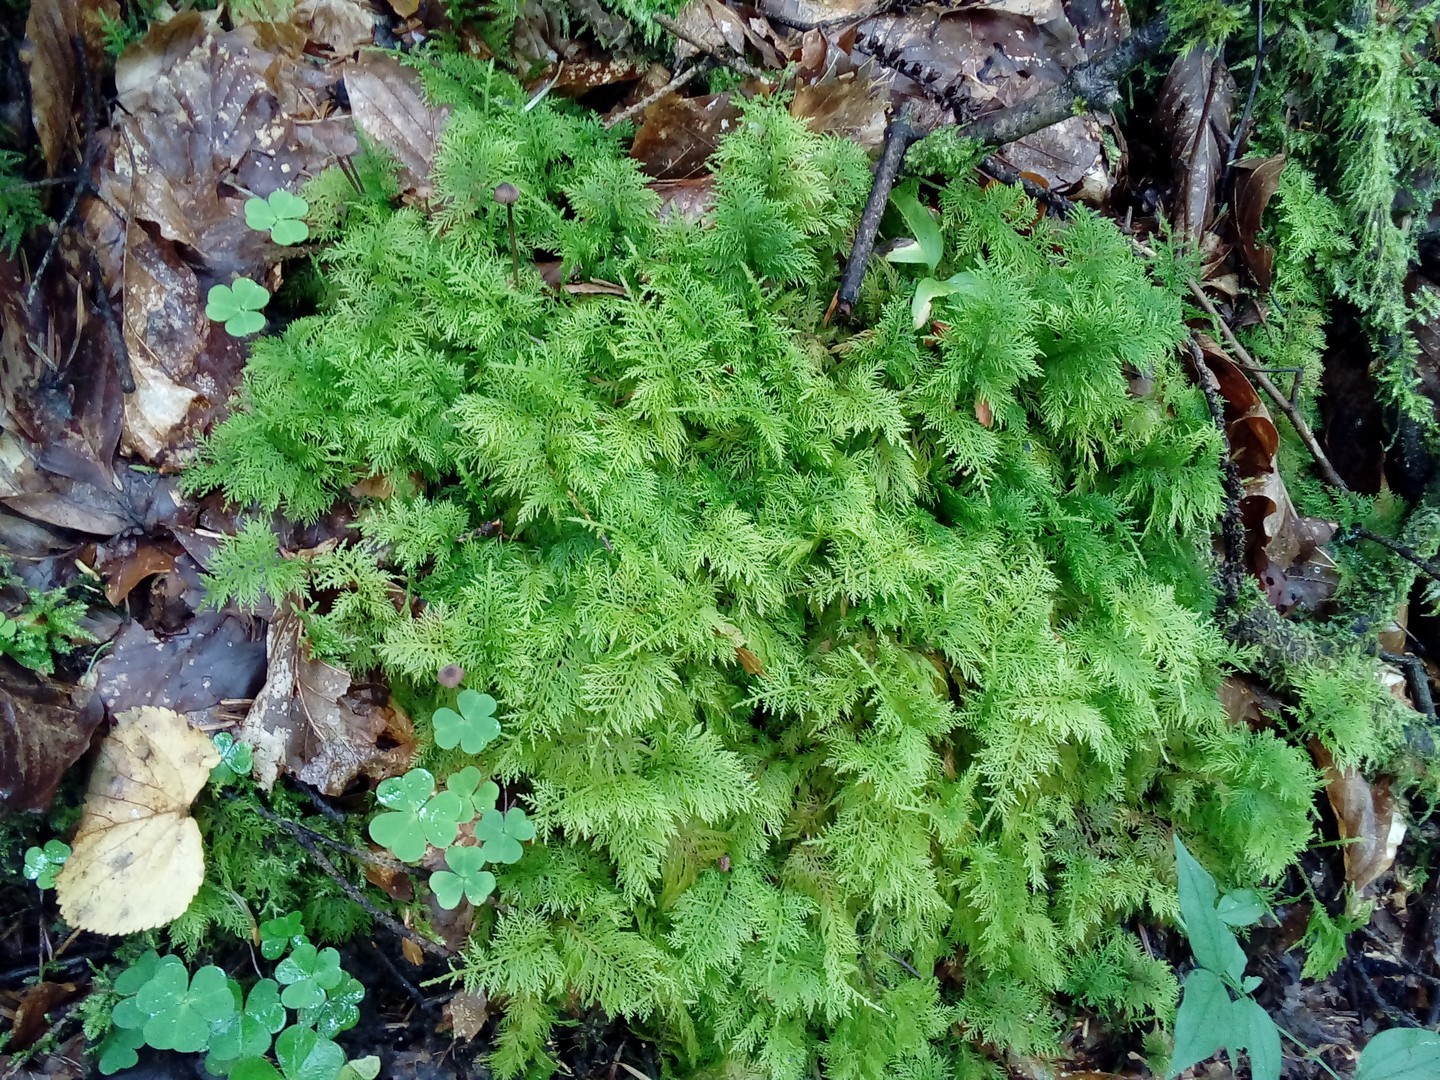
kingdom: Plantae
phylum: Bryophyta
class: Bryopsida
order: Hypnales
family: Thuidiaceae
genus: Thuidium
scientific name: Thuidium tamariscinum
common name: Common tamarisk-moss
